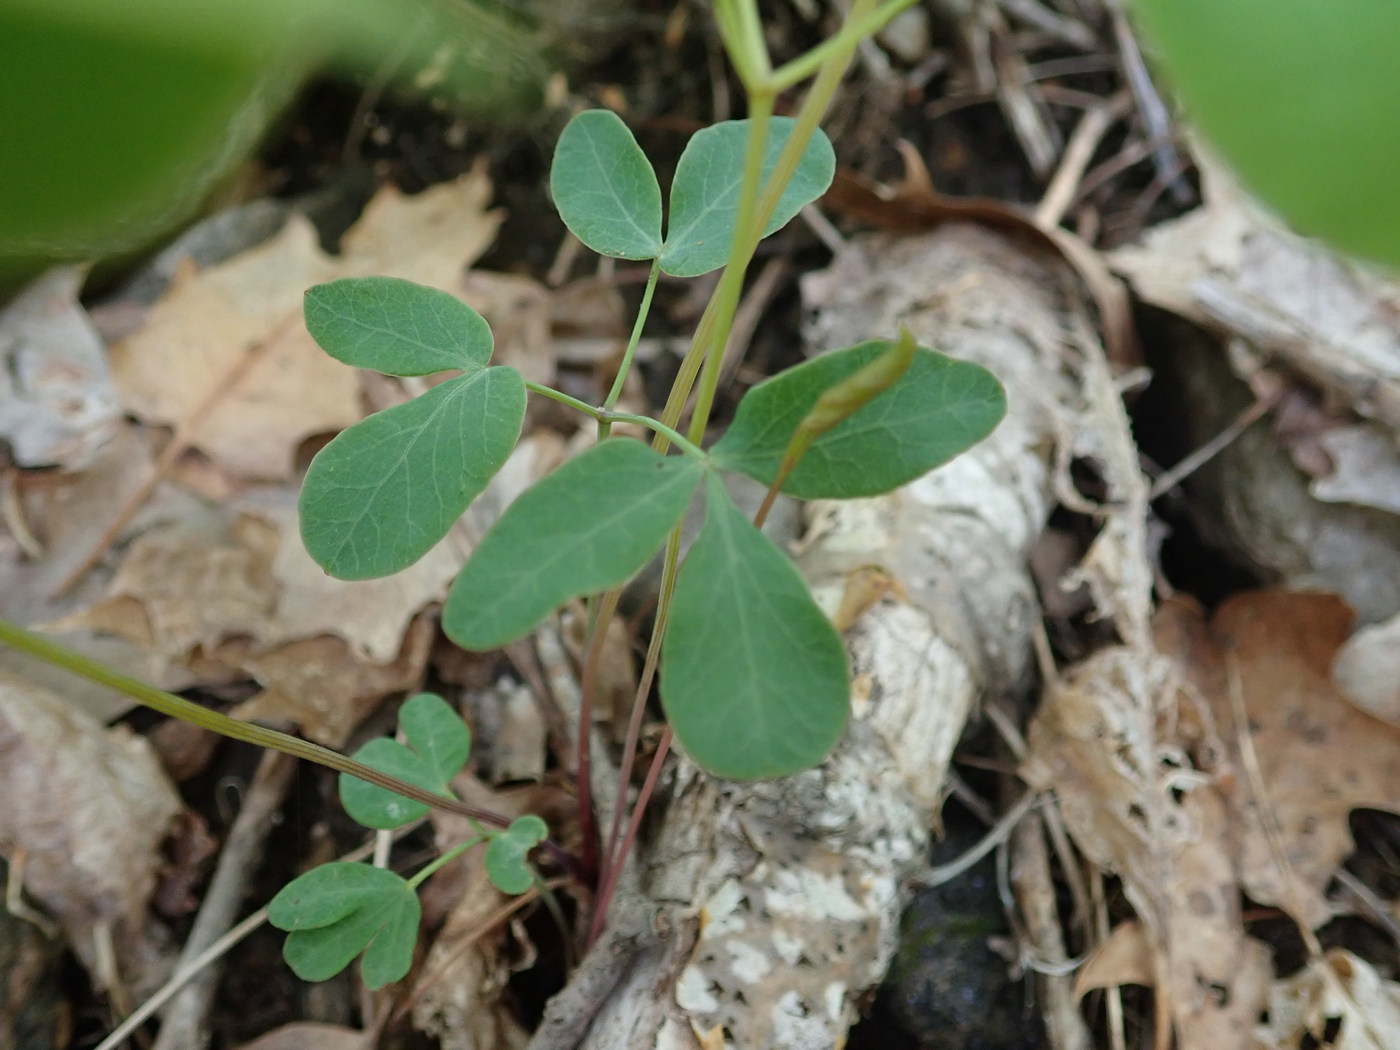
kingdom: Plantae
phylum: Tracheophyta
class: Magnoliopsida
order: Apiales
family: Apiaceae
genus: Taenidia
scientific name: Taenidia integerrima
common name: Golden alexander
